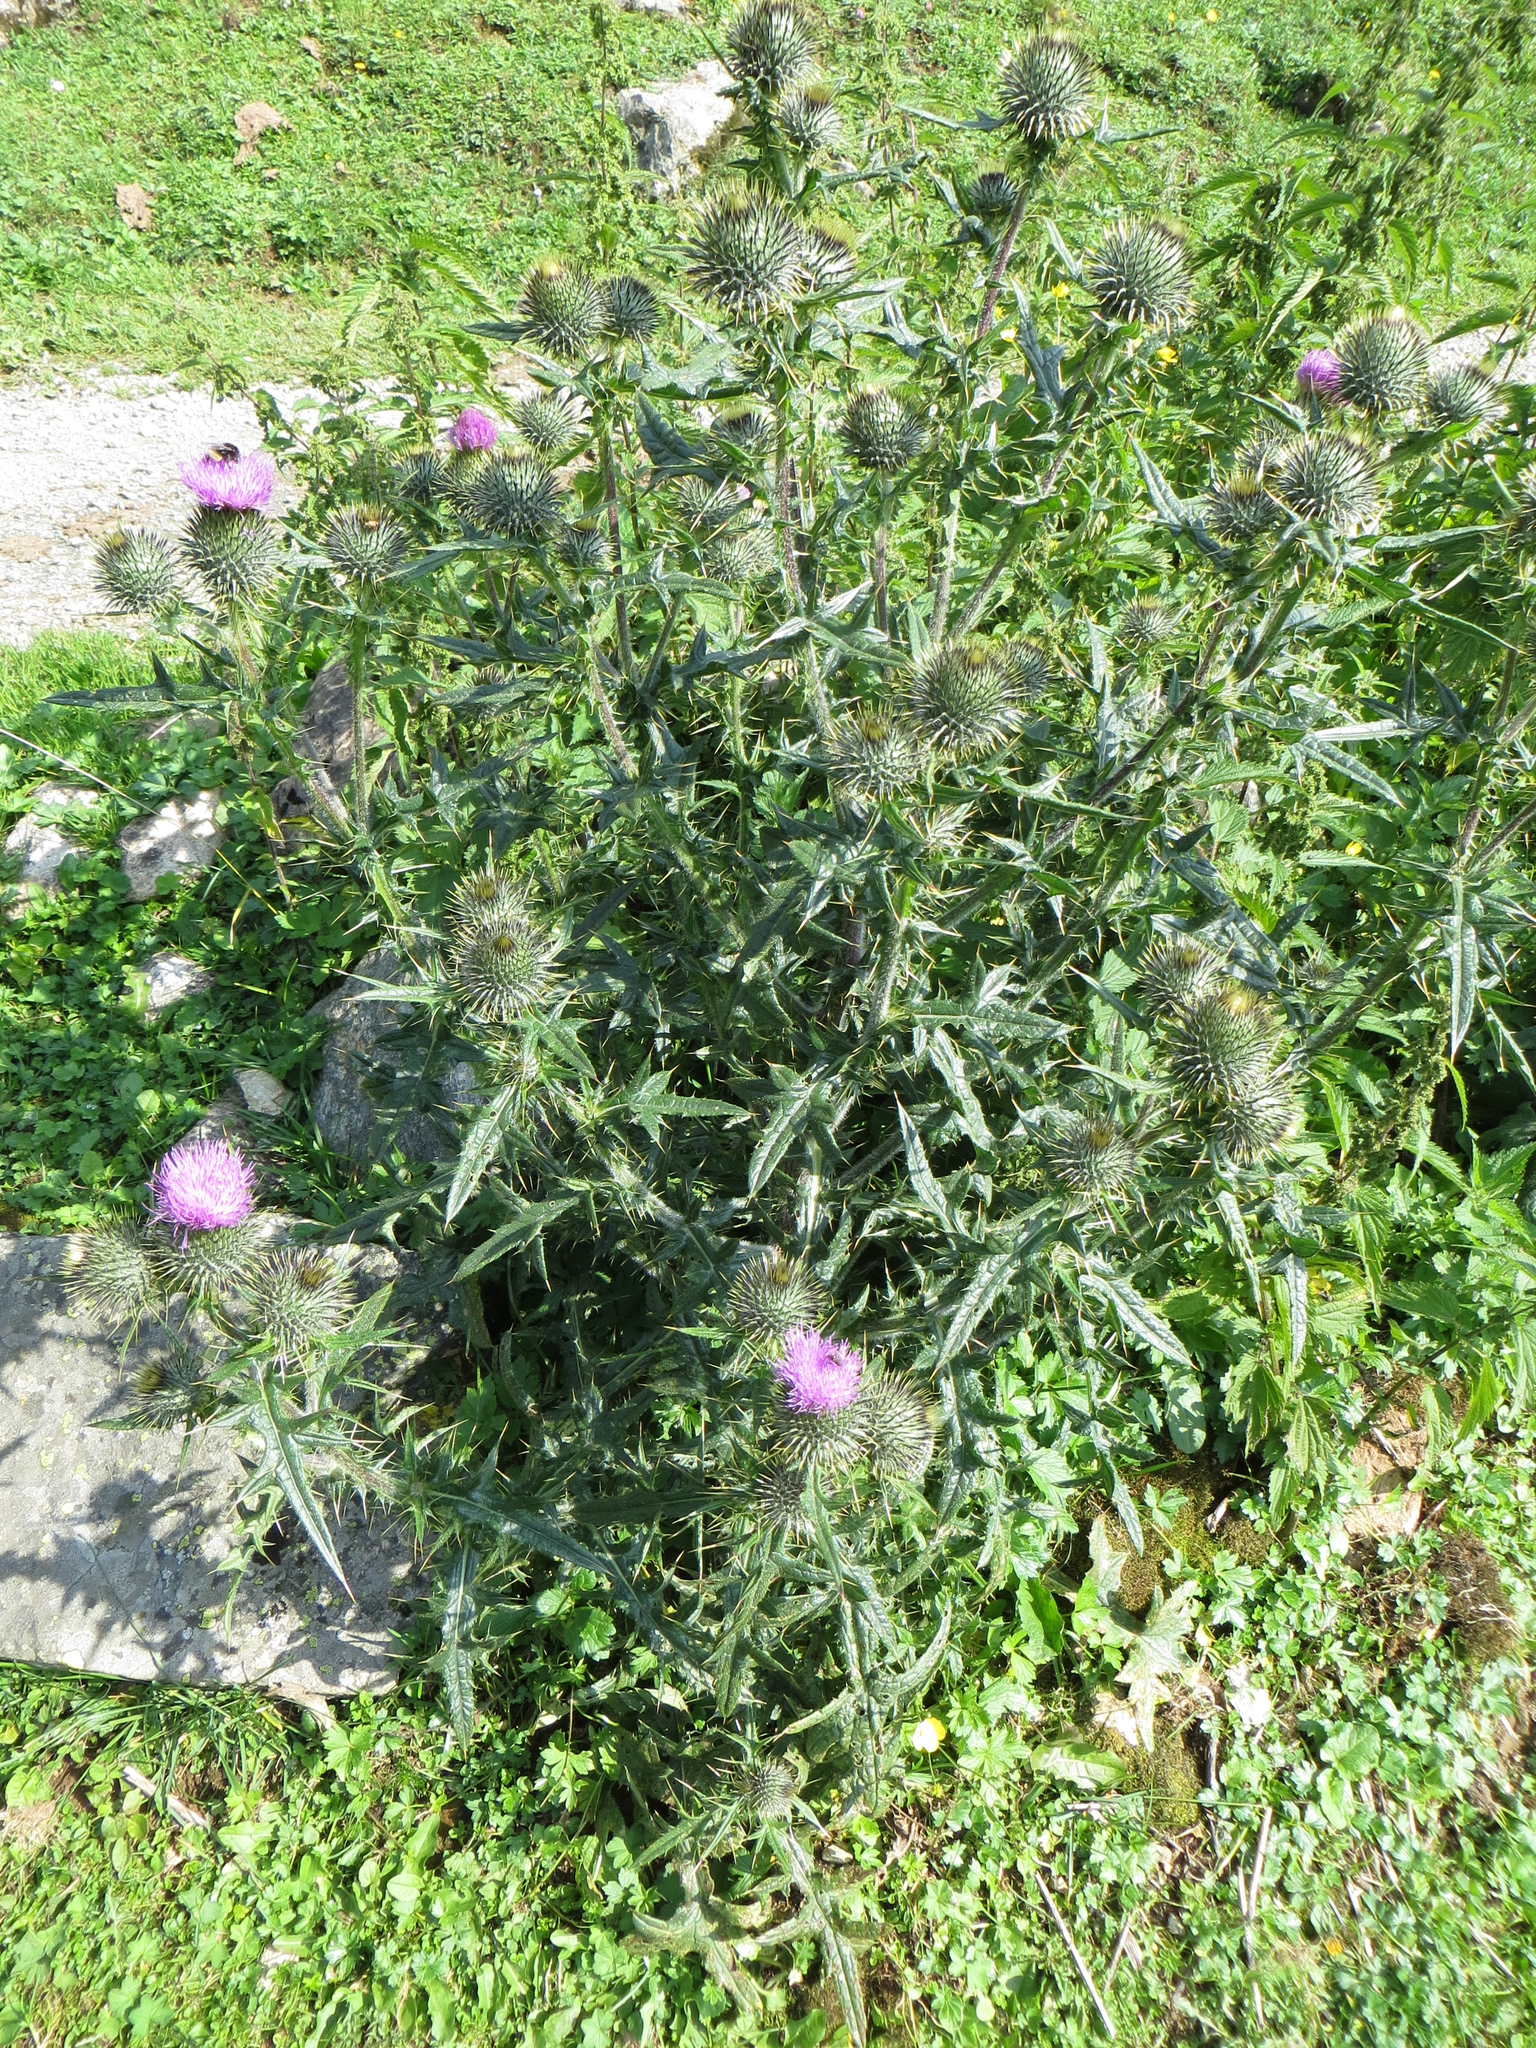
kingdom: Plantae
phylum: Tracheophyta
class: Magnoliopsida
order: Asterales
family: Asteraceae
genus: Cirsium
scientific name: Cirsium vulgare
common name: Bull thistle
